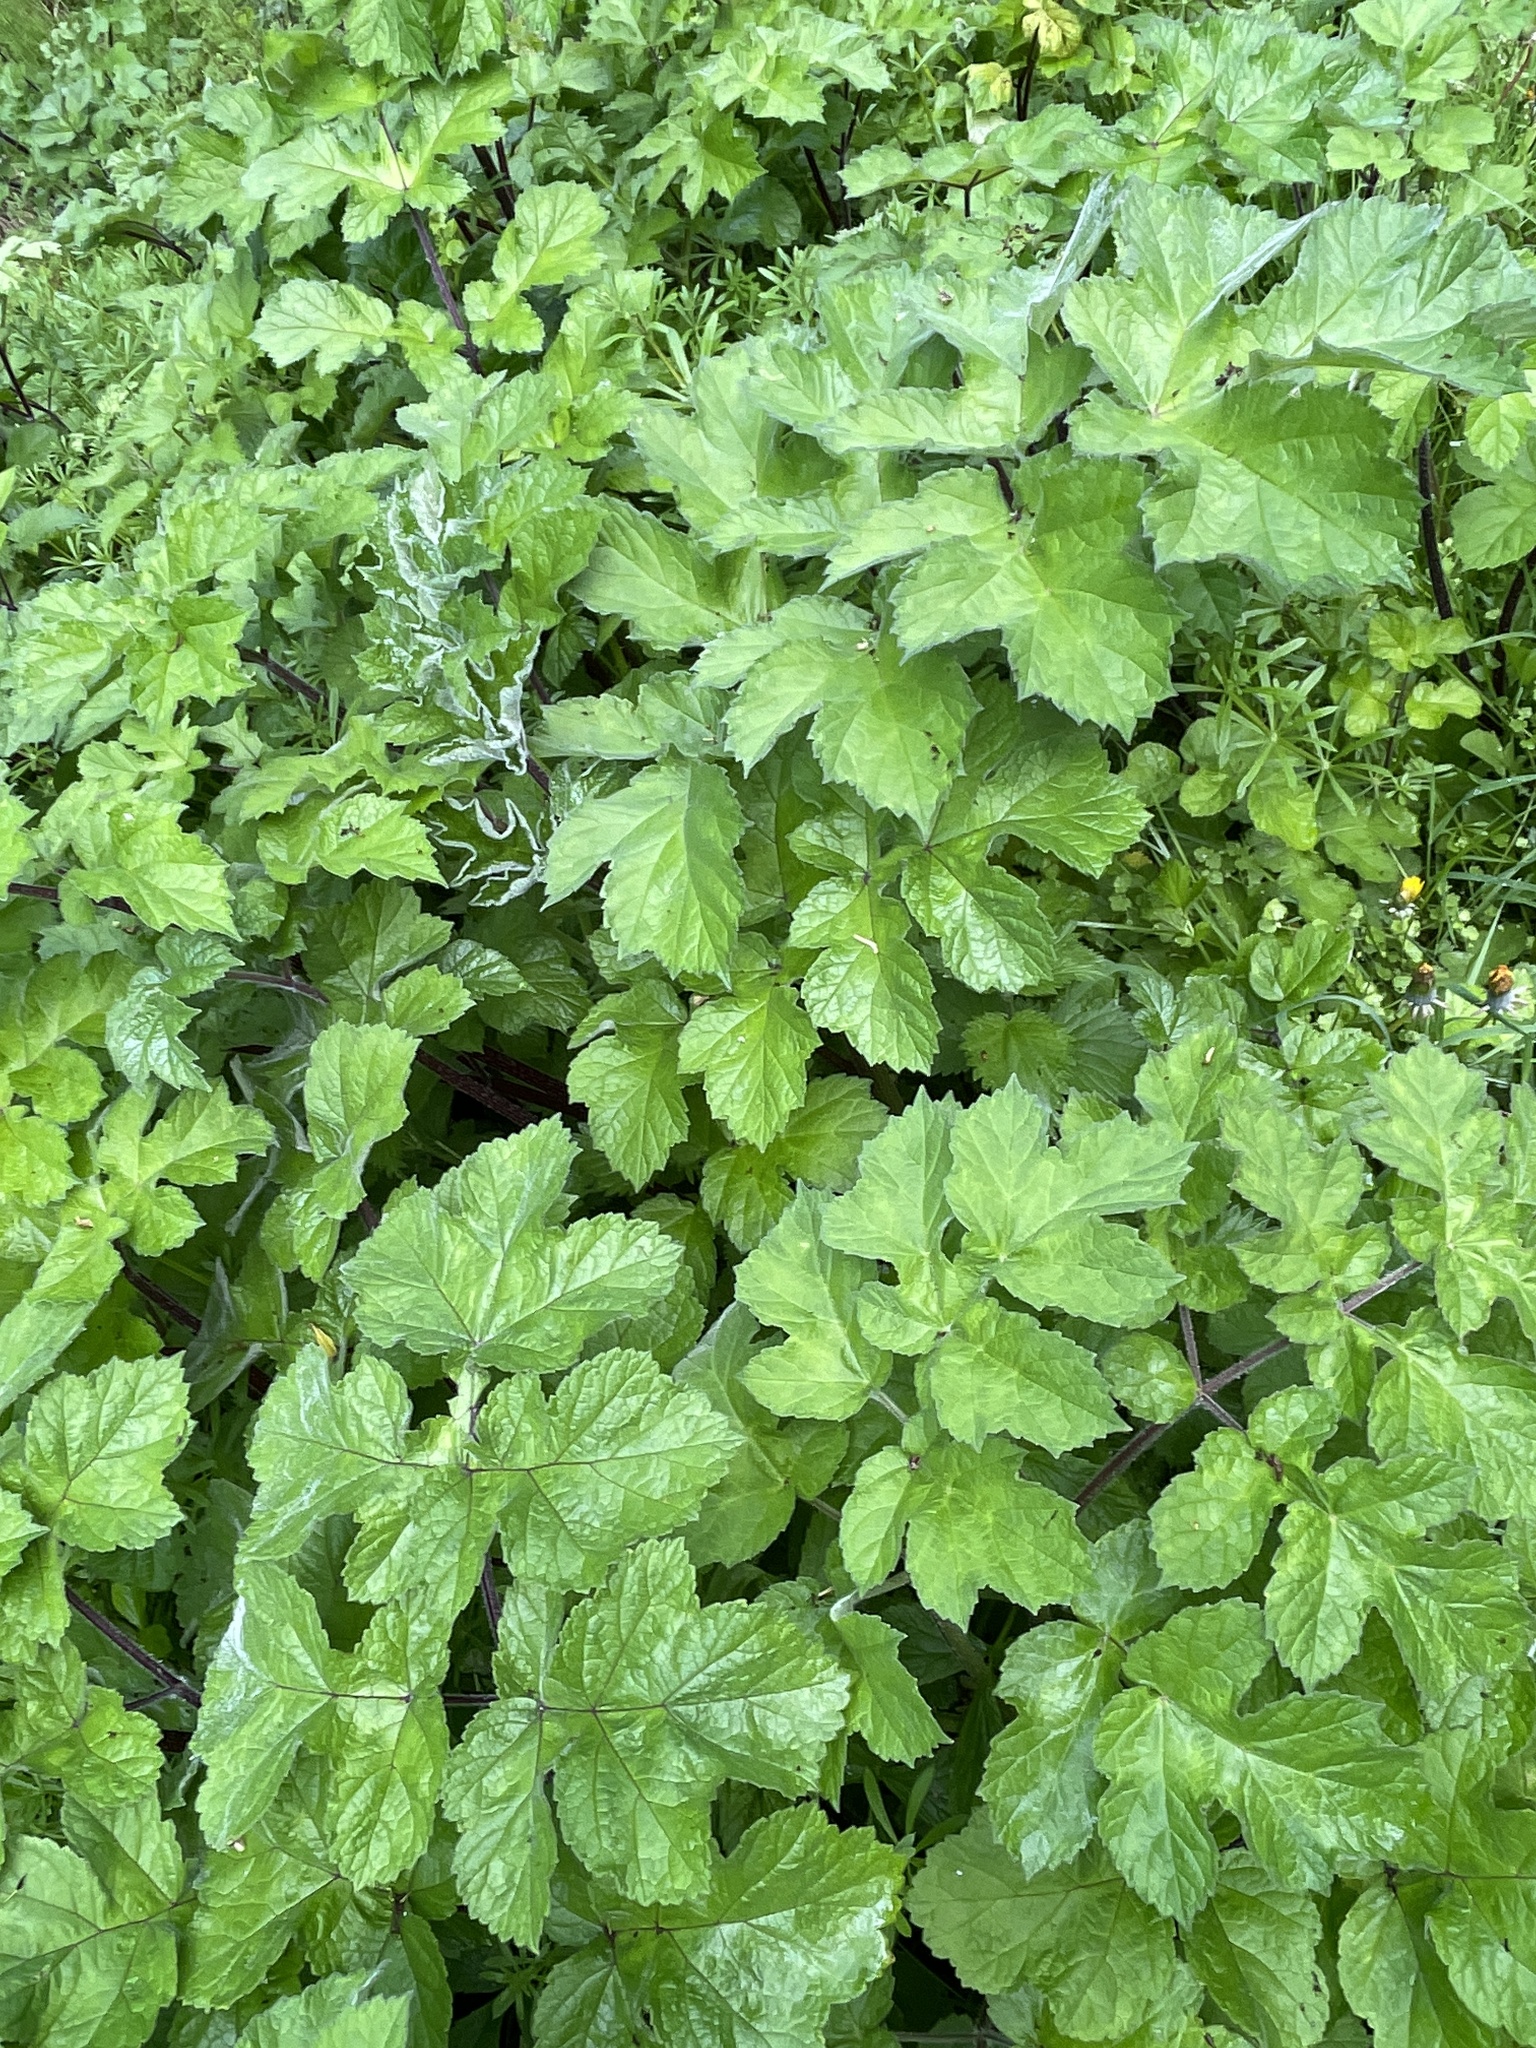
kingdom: Plantae
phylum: Tracheophyta
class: Magnoliopsida
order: Apiales
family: Apiaceae
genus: Heracleum
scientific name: Heracleum sphondylium
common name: Hogweed
